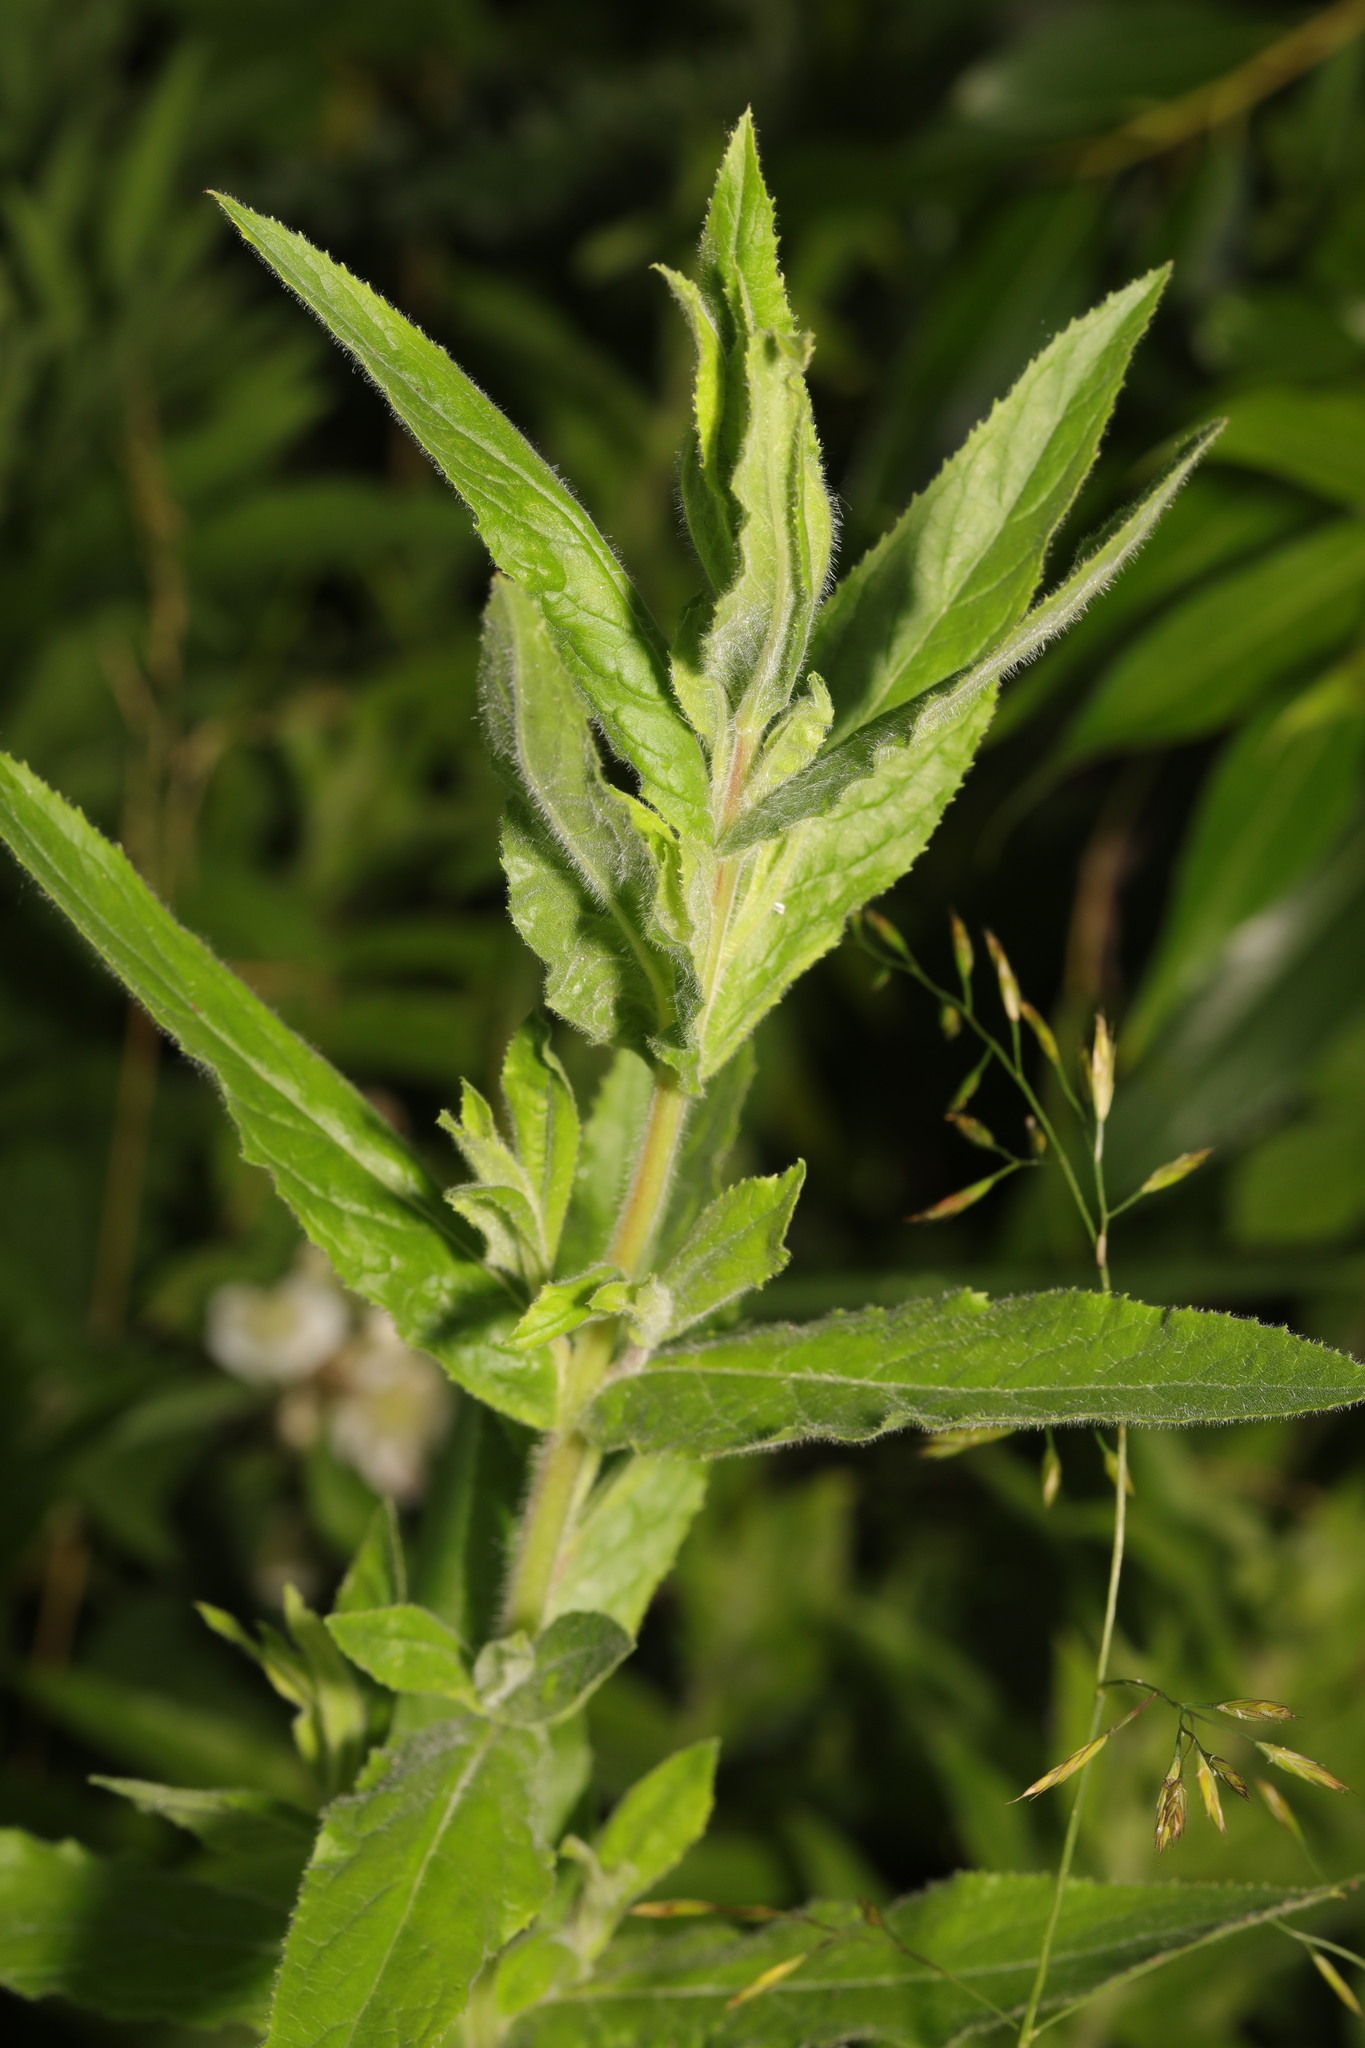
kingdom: Plantae
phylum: Tracheophyta
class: Magnoliopsida
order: Myrtales
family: Onagraceae
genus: Epilobium
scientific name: Epilobium hirsutum
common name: Great willowherb
